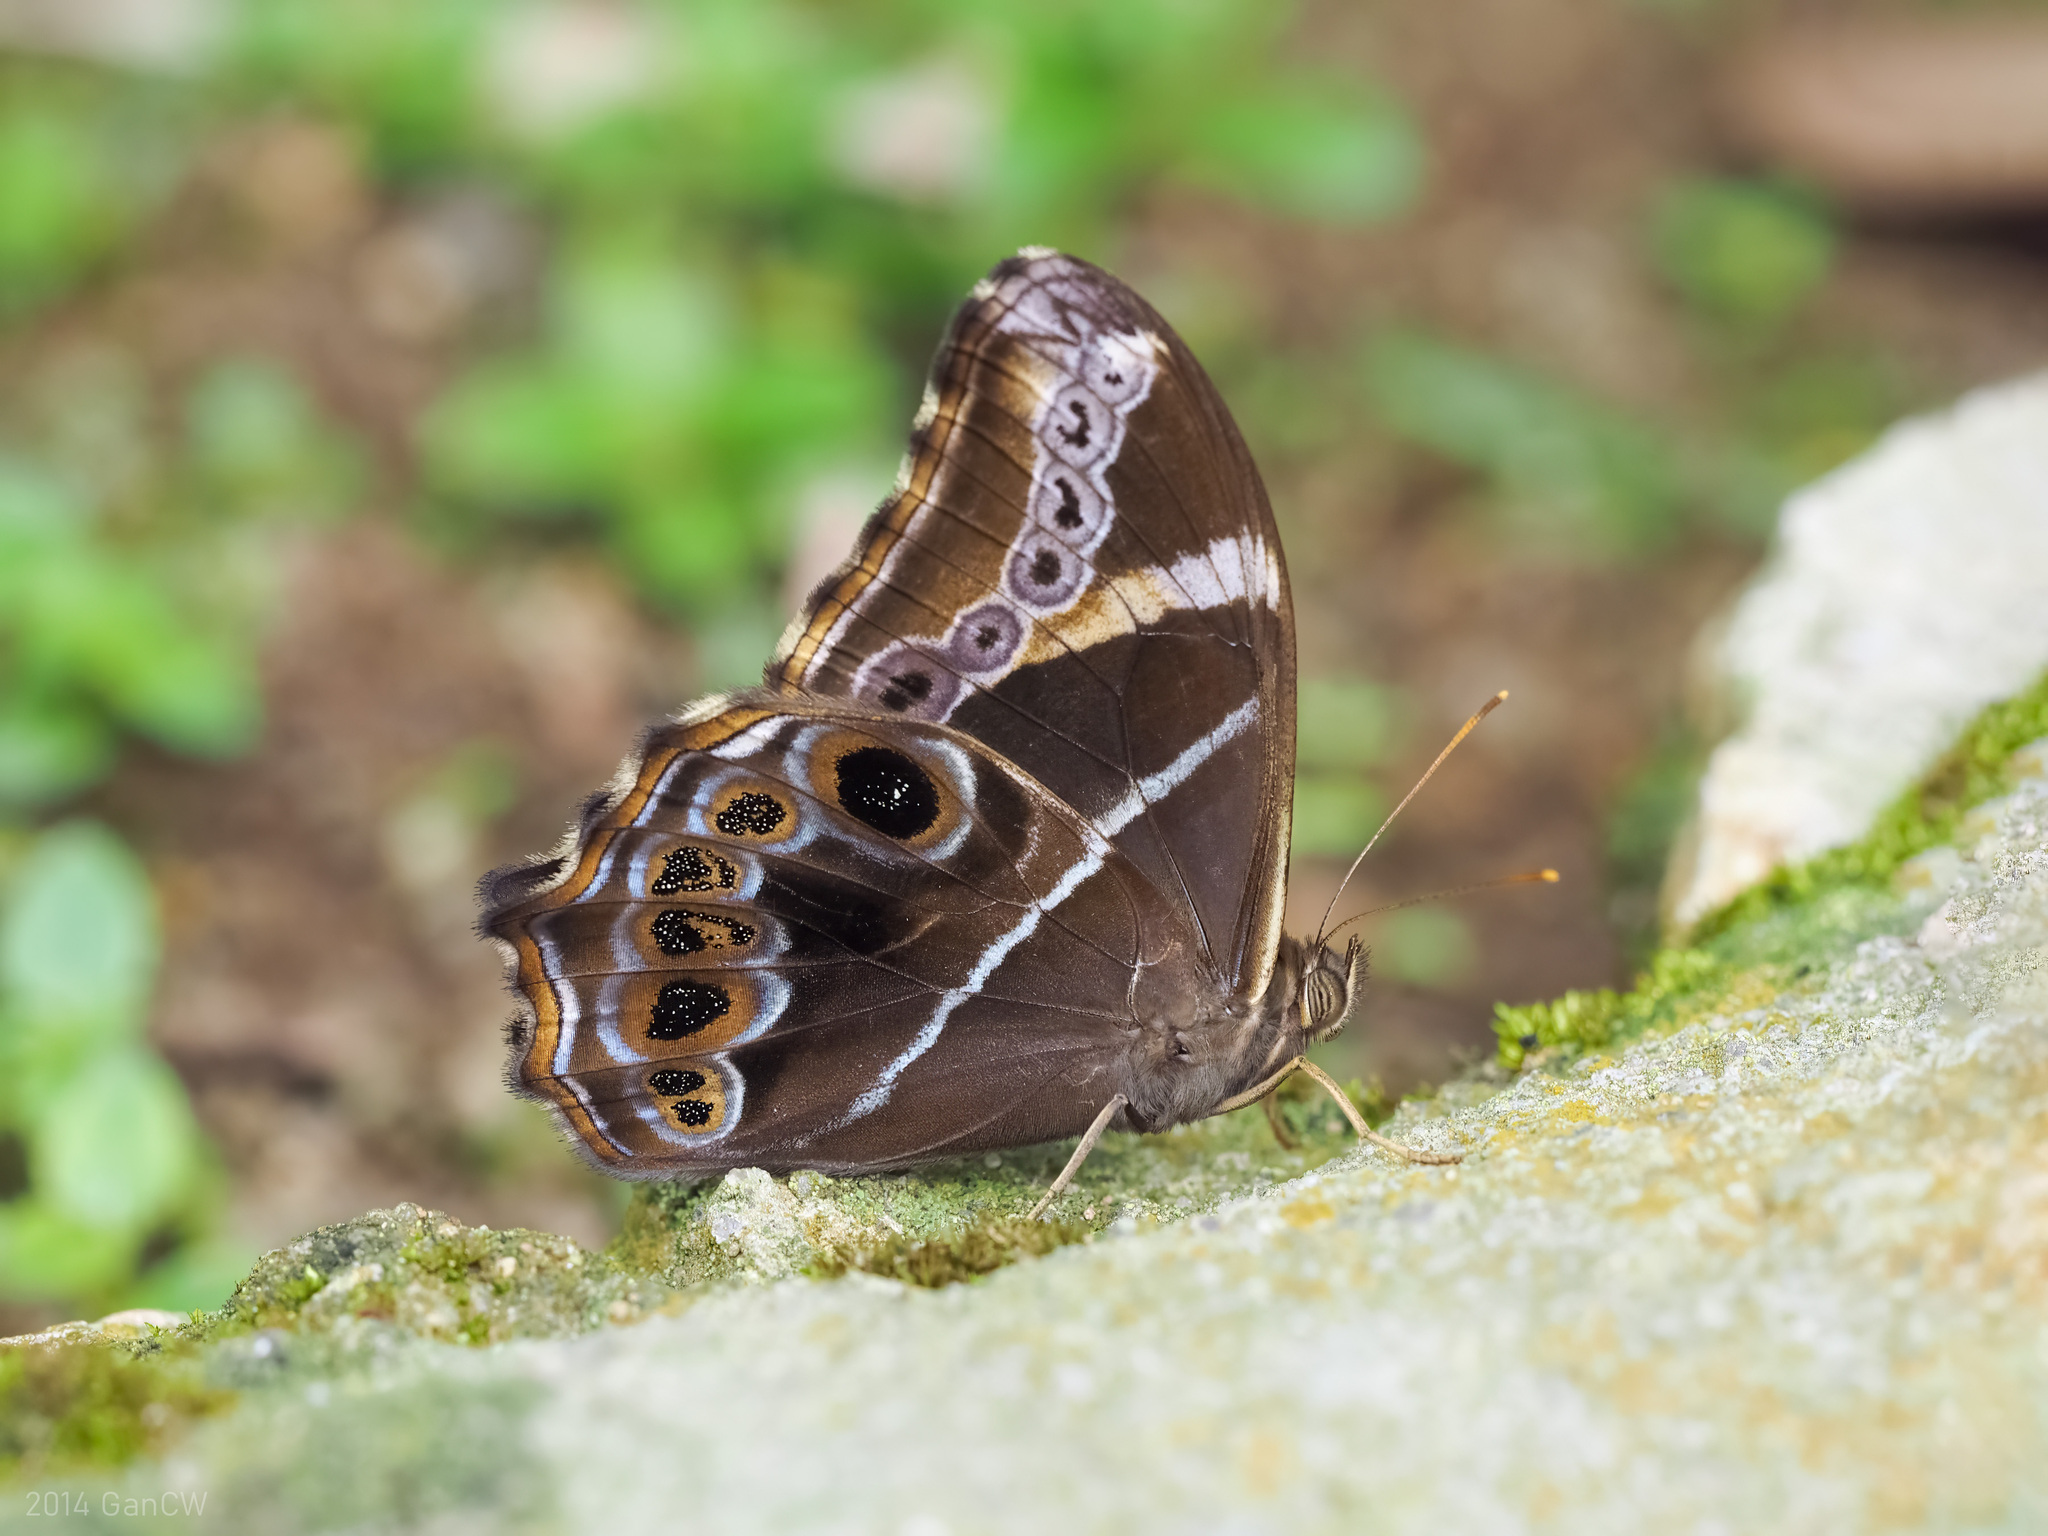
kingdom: Animalia
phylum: Arthropoda
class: Insecta
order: Lepidoptera
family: Nymphalidae
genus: Lethe
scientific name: Lethe europa
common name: Bamboo treebrown
